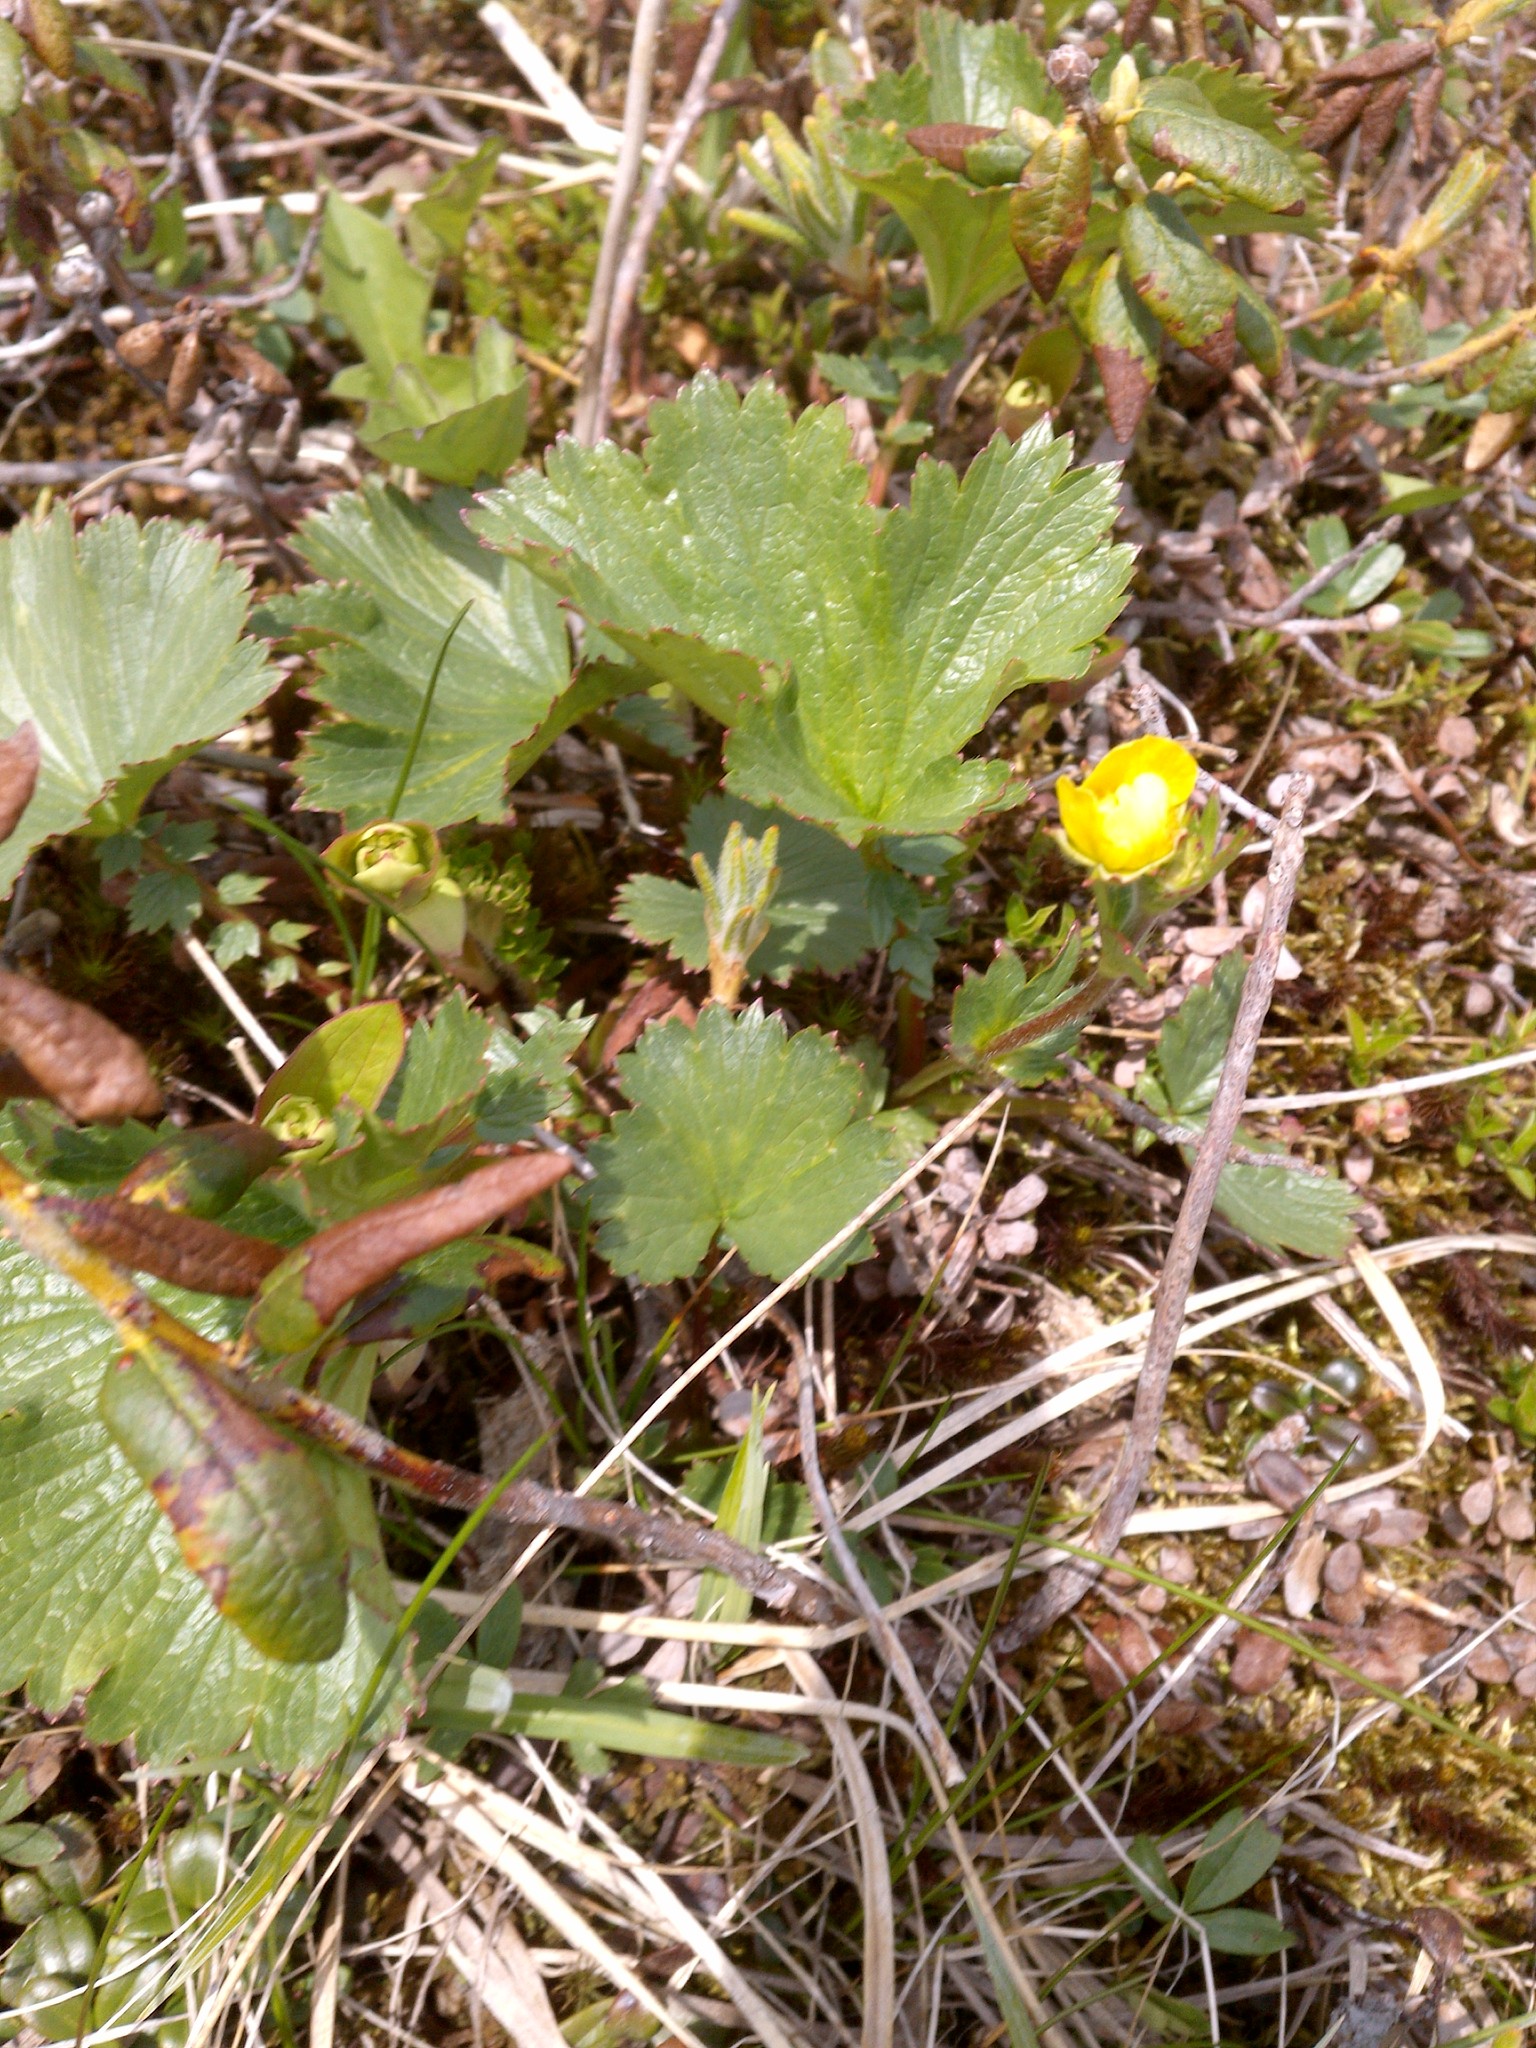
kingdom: Plantae
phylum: Tracheophyta
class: Magnoliopsida
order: Rosales
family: Rosaceae
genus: Geum
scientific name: Geum peckii
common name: Eastern mountain avens
